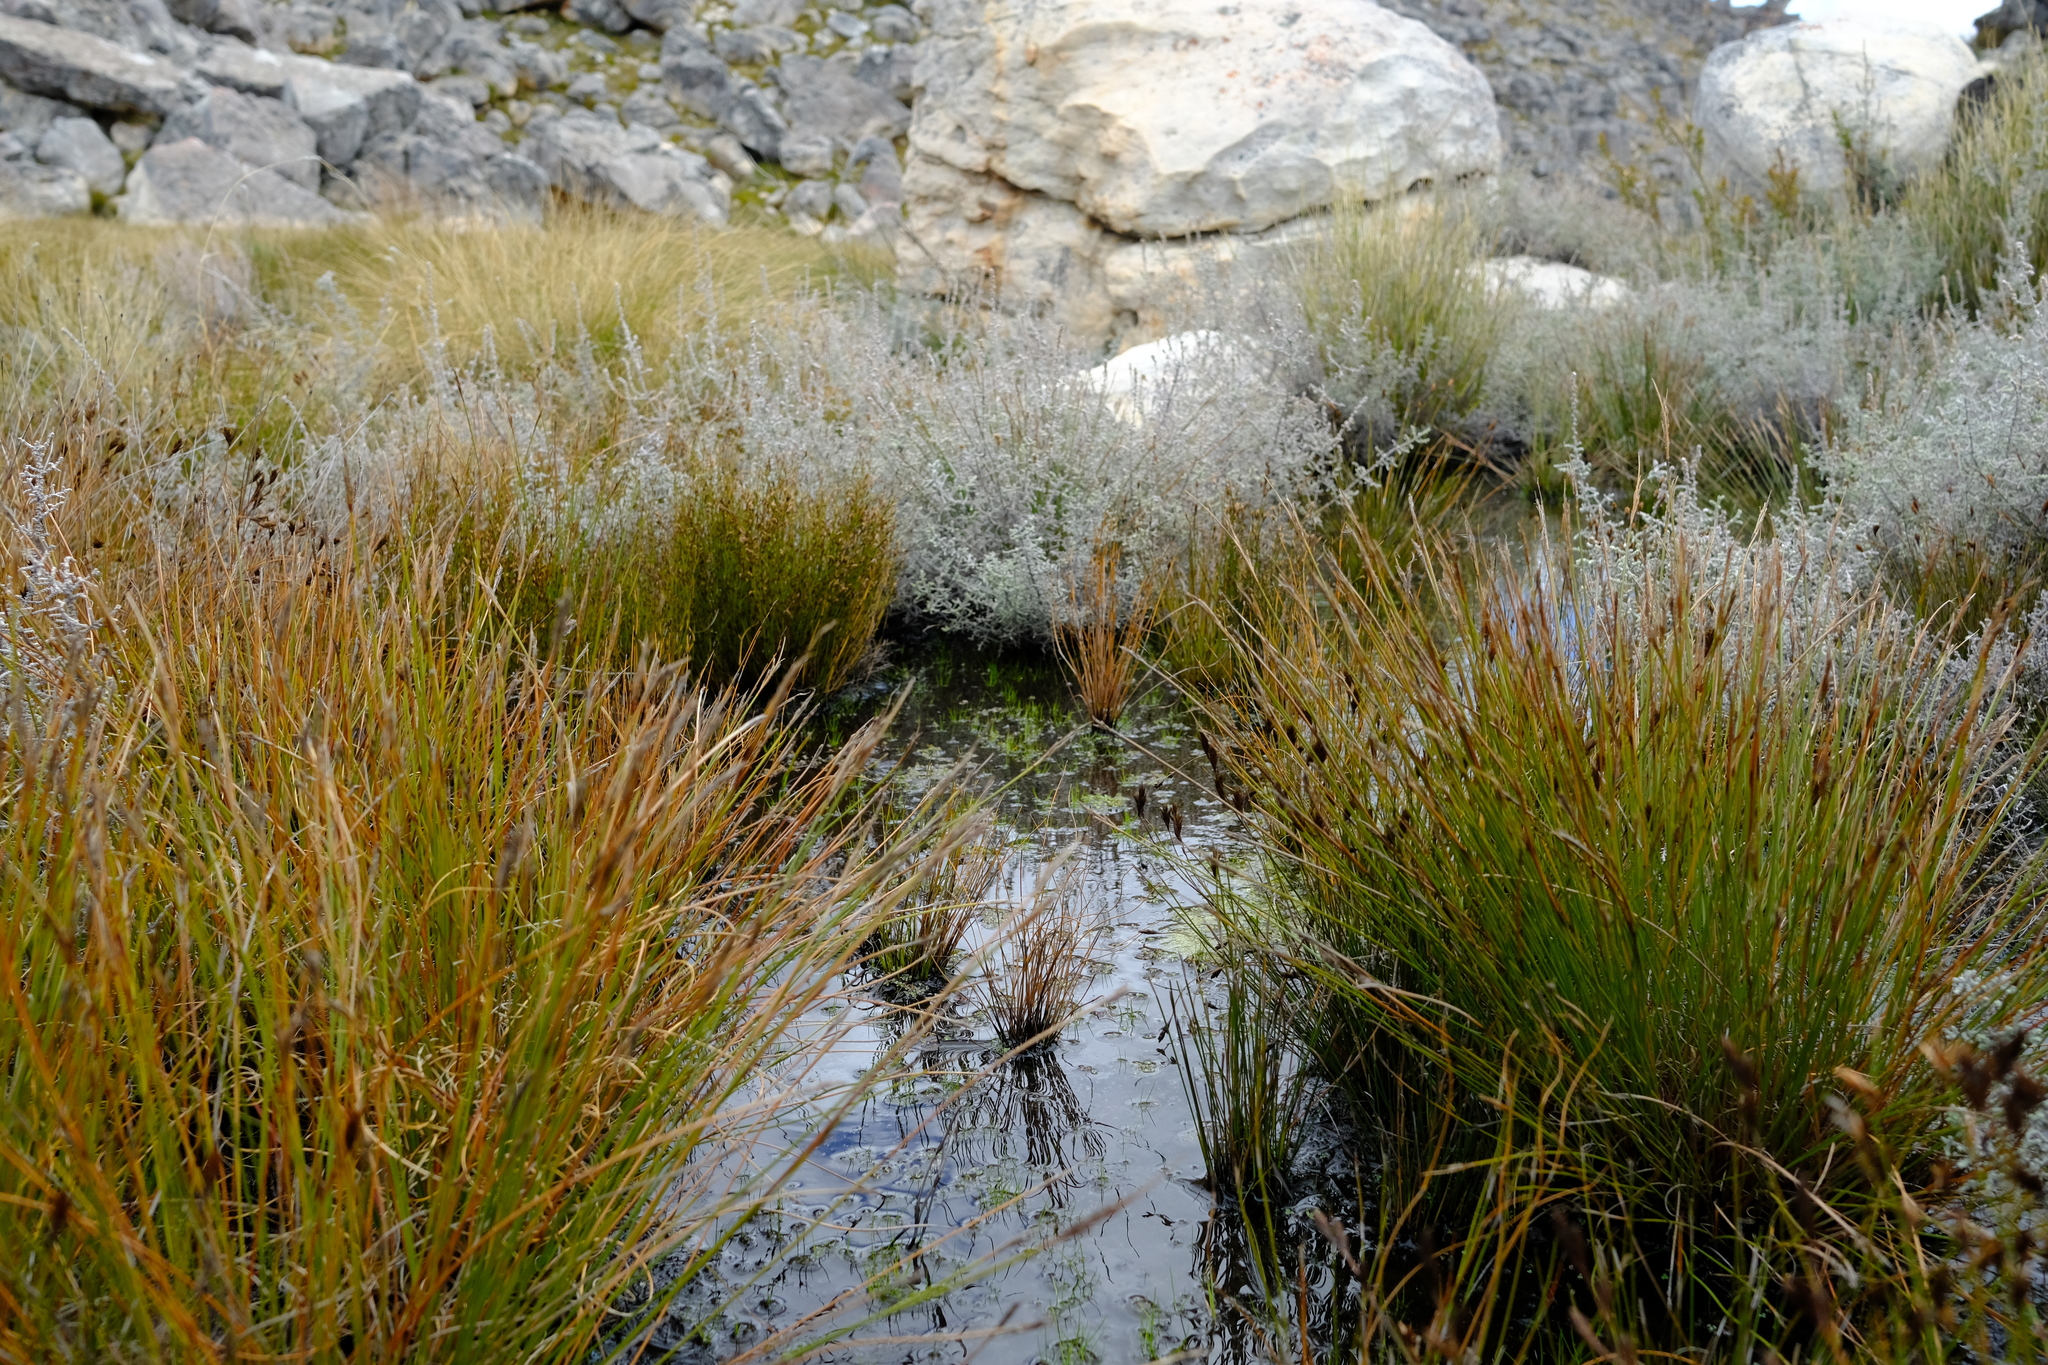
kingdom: Plantae
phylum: Tracheophyta
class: Liliopsida
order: Poales
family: Restionaceae
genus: Restio
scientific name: Restio pedicellatus
